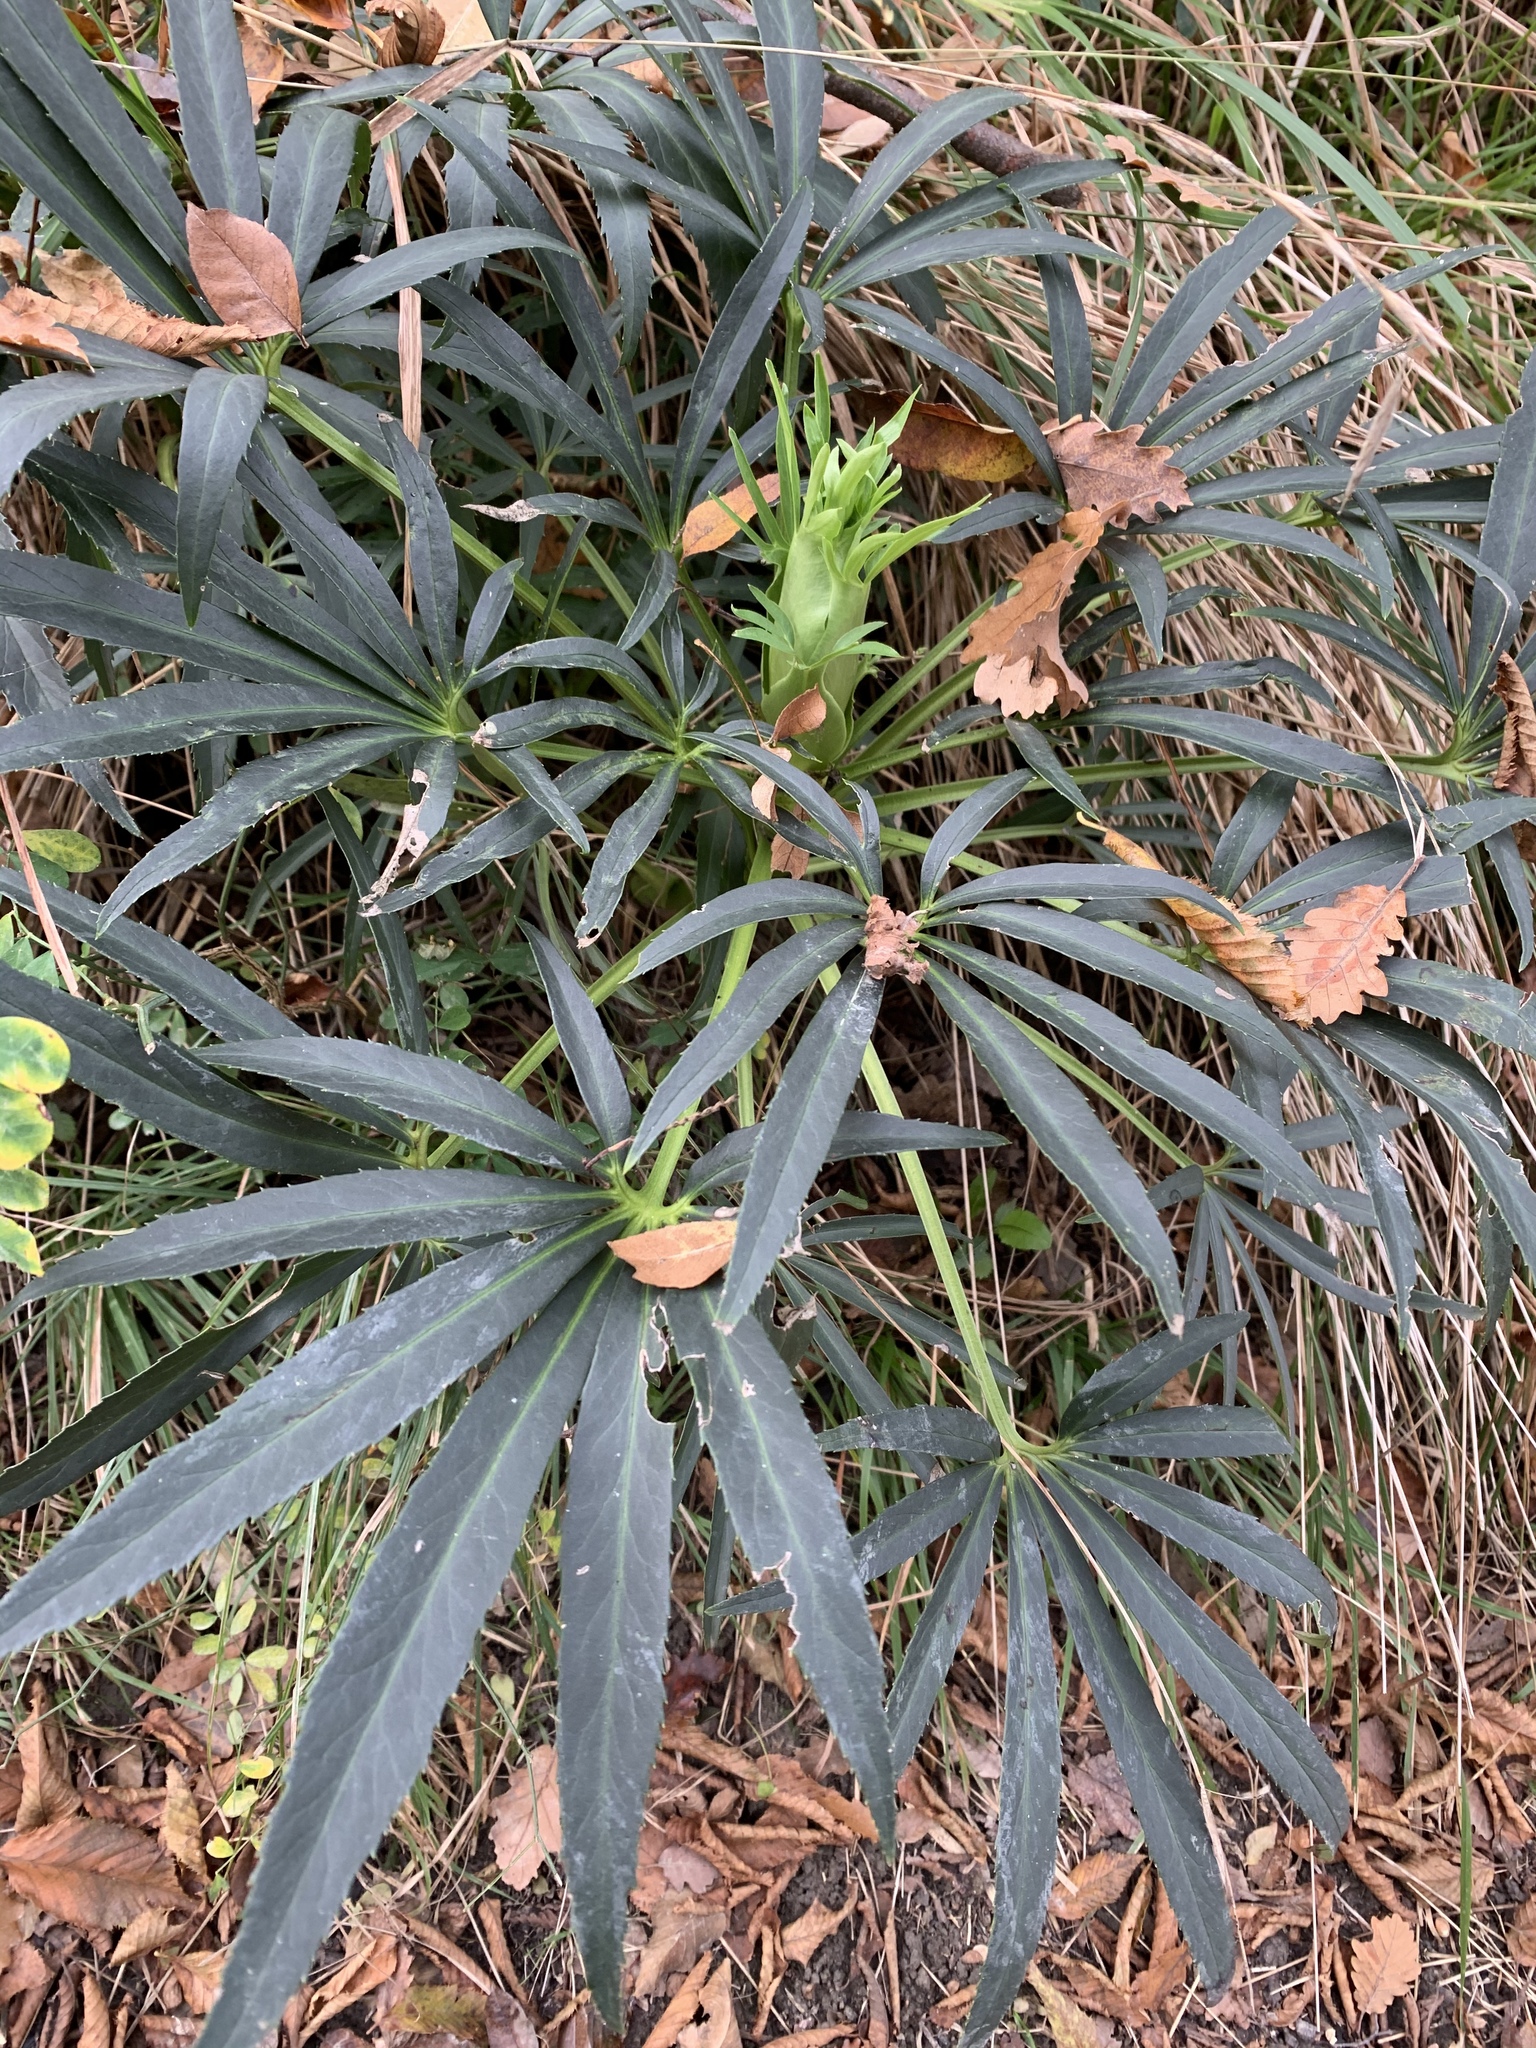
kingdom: Plantae
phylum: Tracheophyta
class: Magnoliopsida
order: Ranunculales
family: Ranunculaceae
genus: Helleborus
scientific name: Helleborus foetidus
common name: Stinking hellebore
